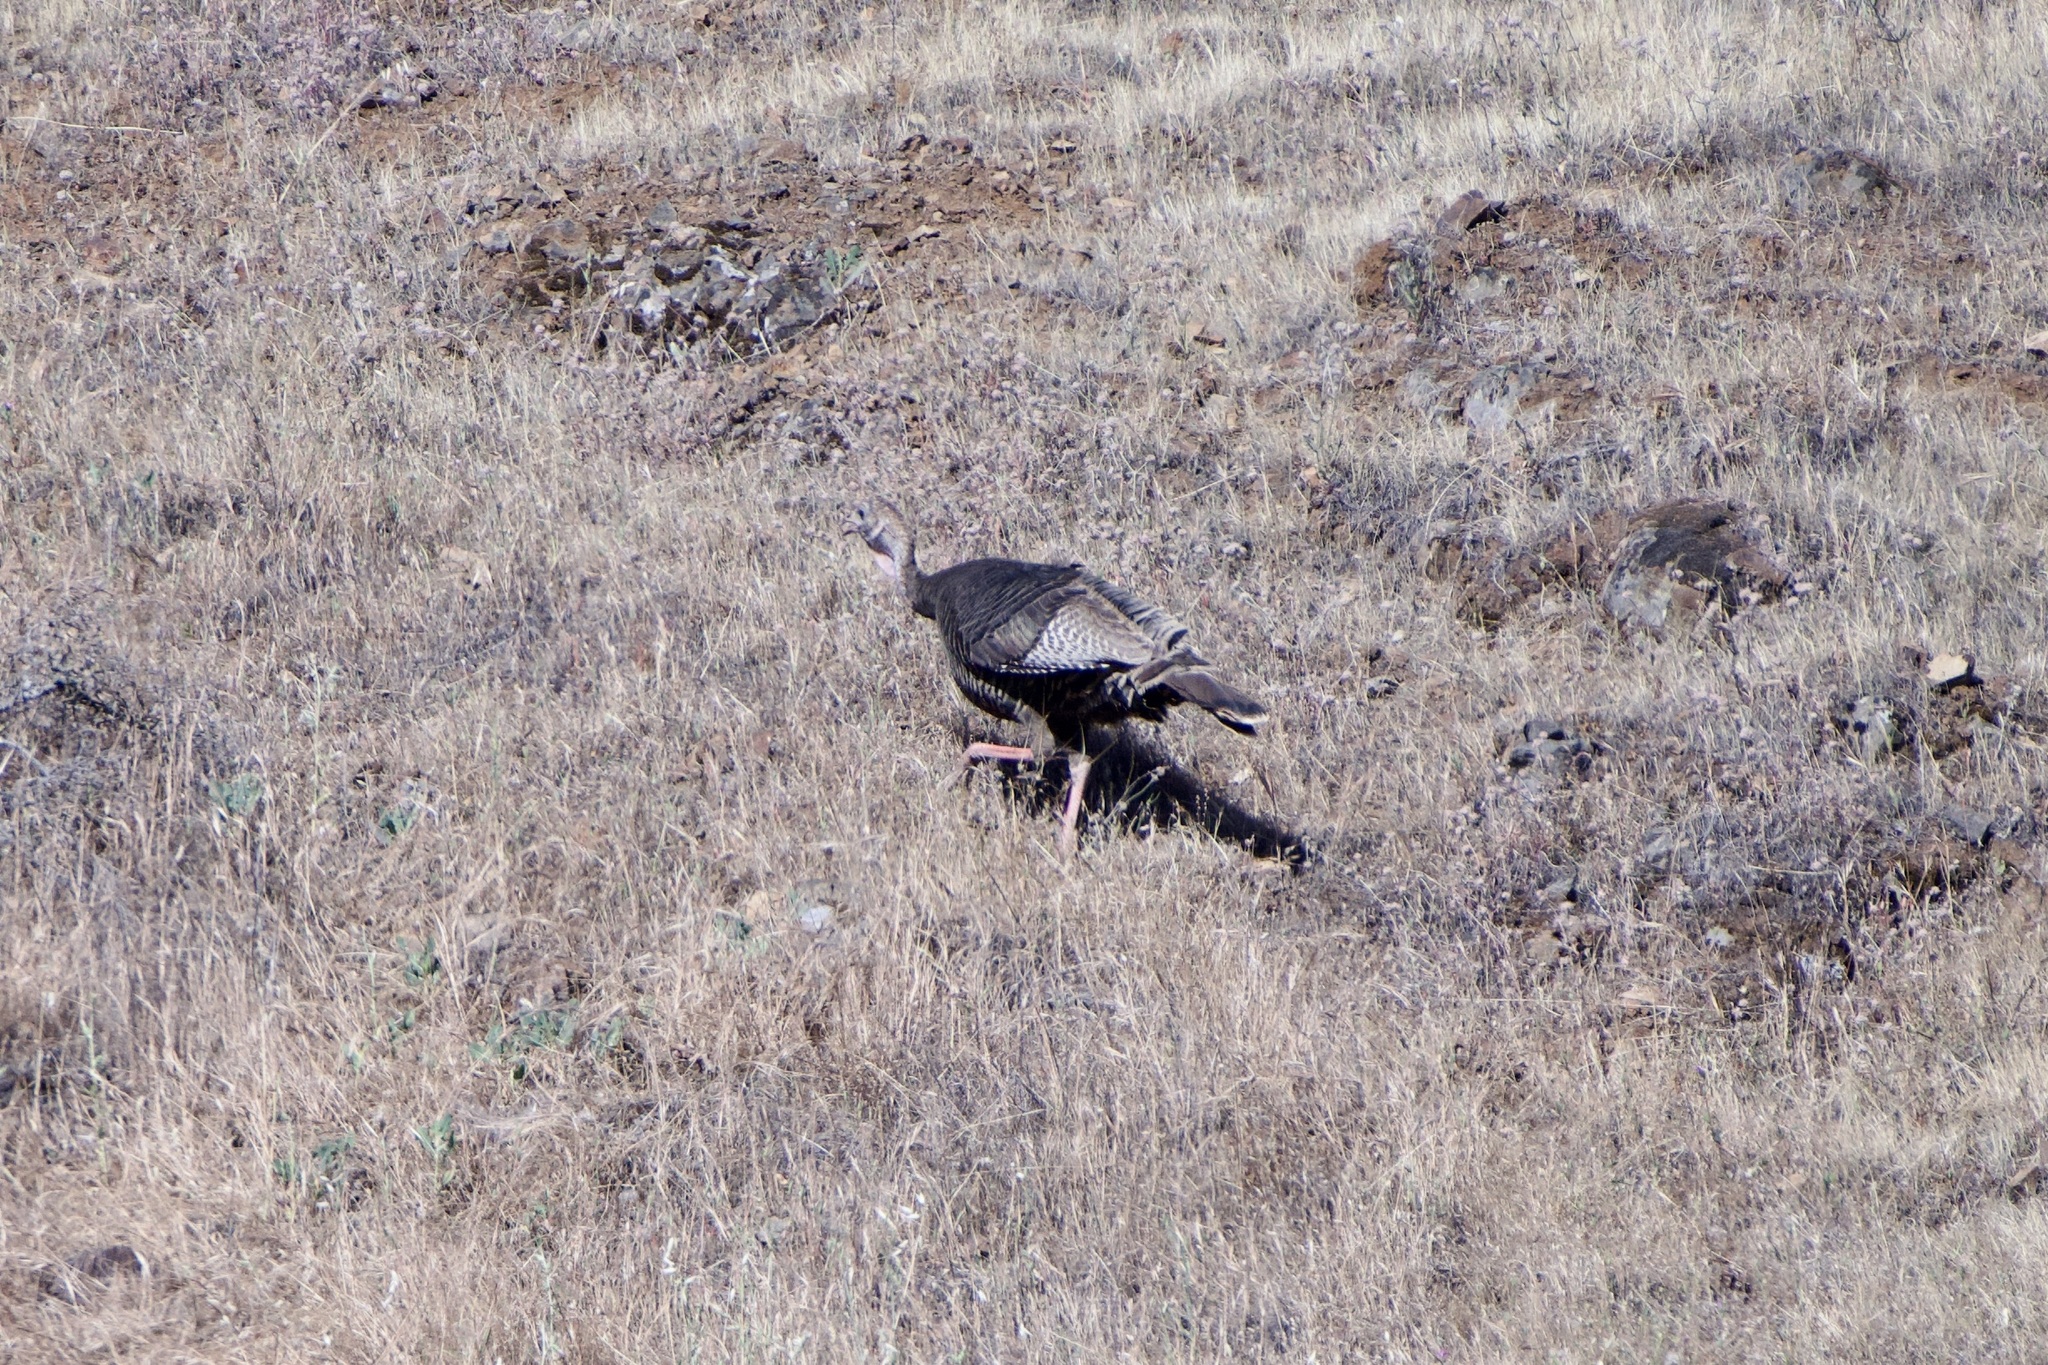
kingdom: Animalia
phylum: Chordata
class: Aves
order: Galliformes
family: Phasianidae
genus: Meleagris
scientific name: Meleagris gallopavo
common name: Wild turkey
